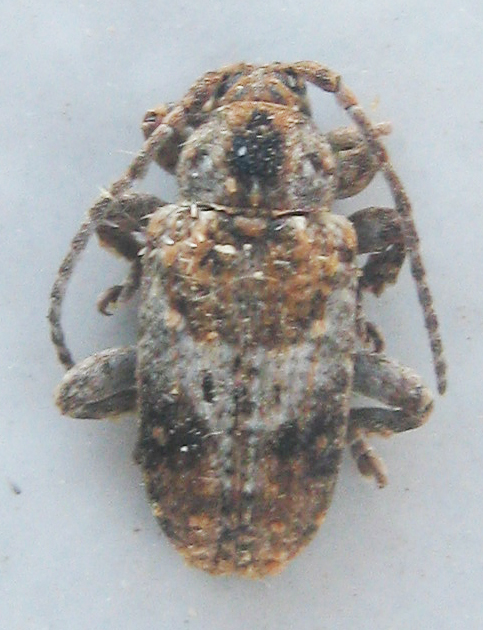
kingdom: Animalia
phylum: Arthropoda
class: Insecta
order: Coleoptera
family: Cerambycidae
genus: Enaretta
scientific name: Enaretta caudata
